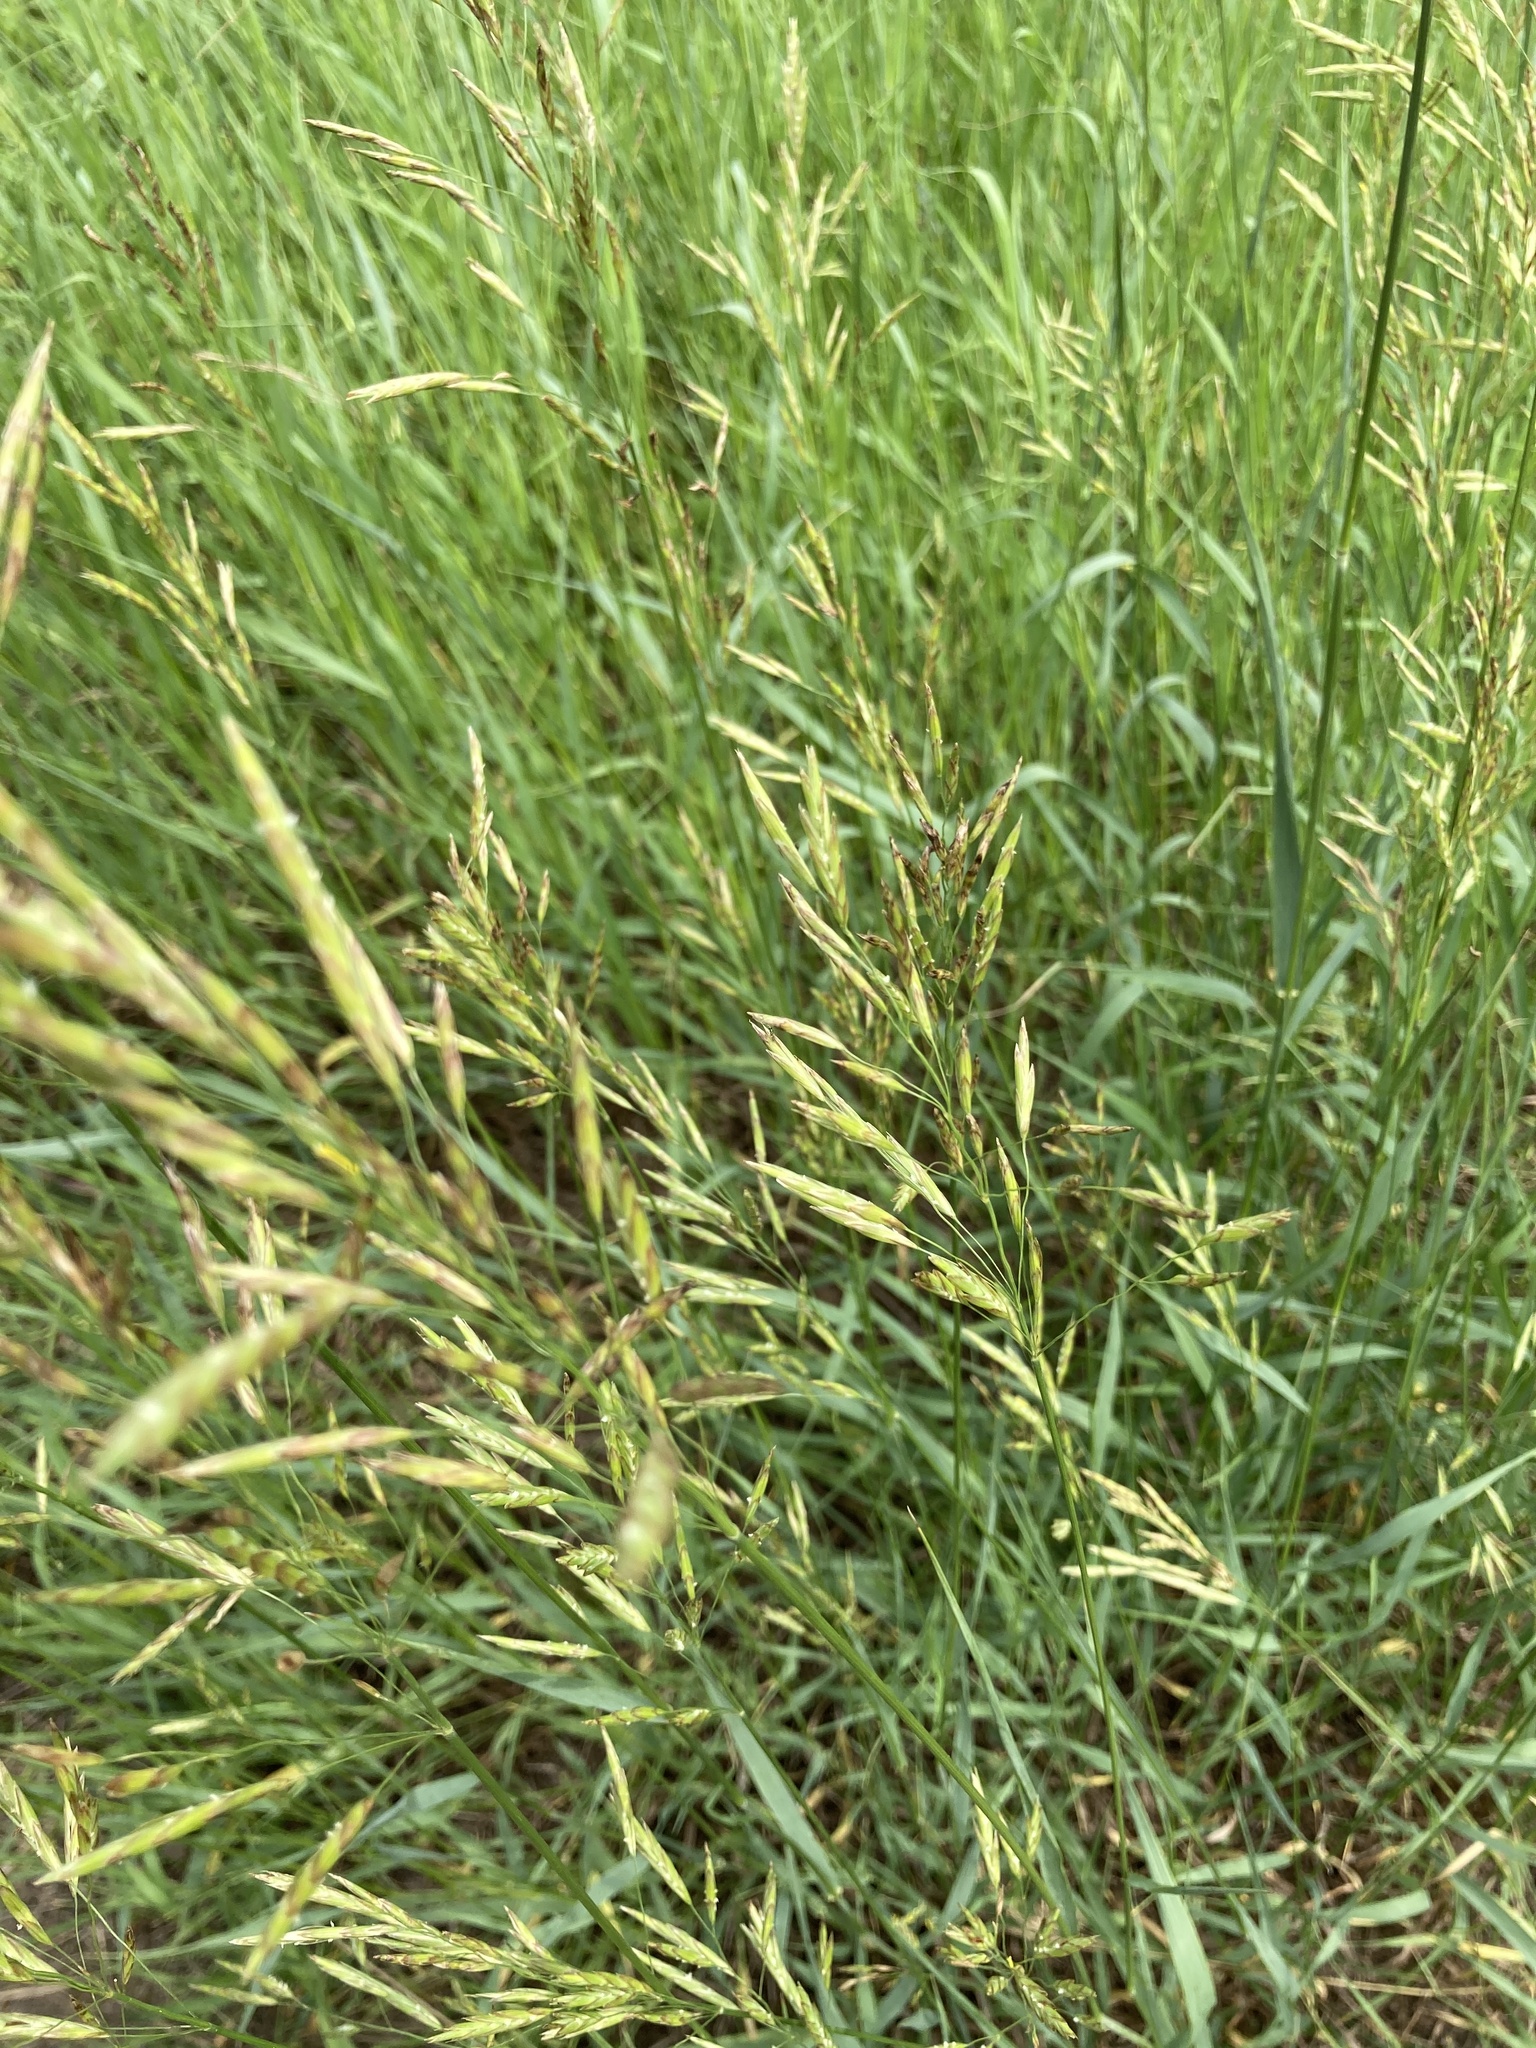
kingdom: Plantae
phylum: Tracheophyta
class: Liliopsida
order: Poales
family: Poaceae
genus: Bromus
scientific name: Bromus inermis
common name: Smooth brome
